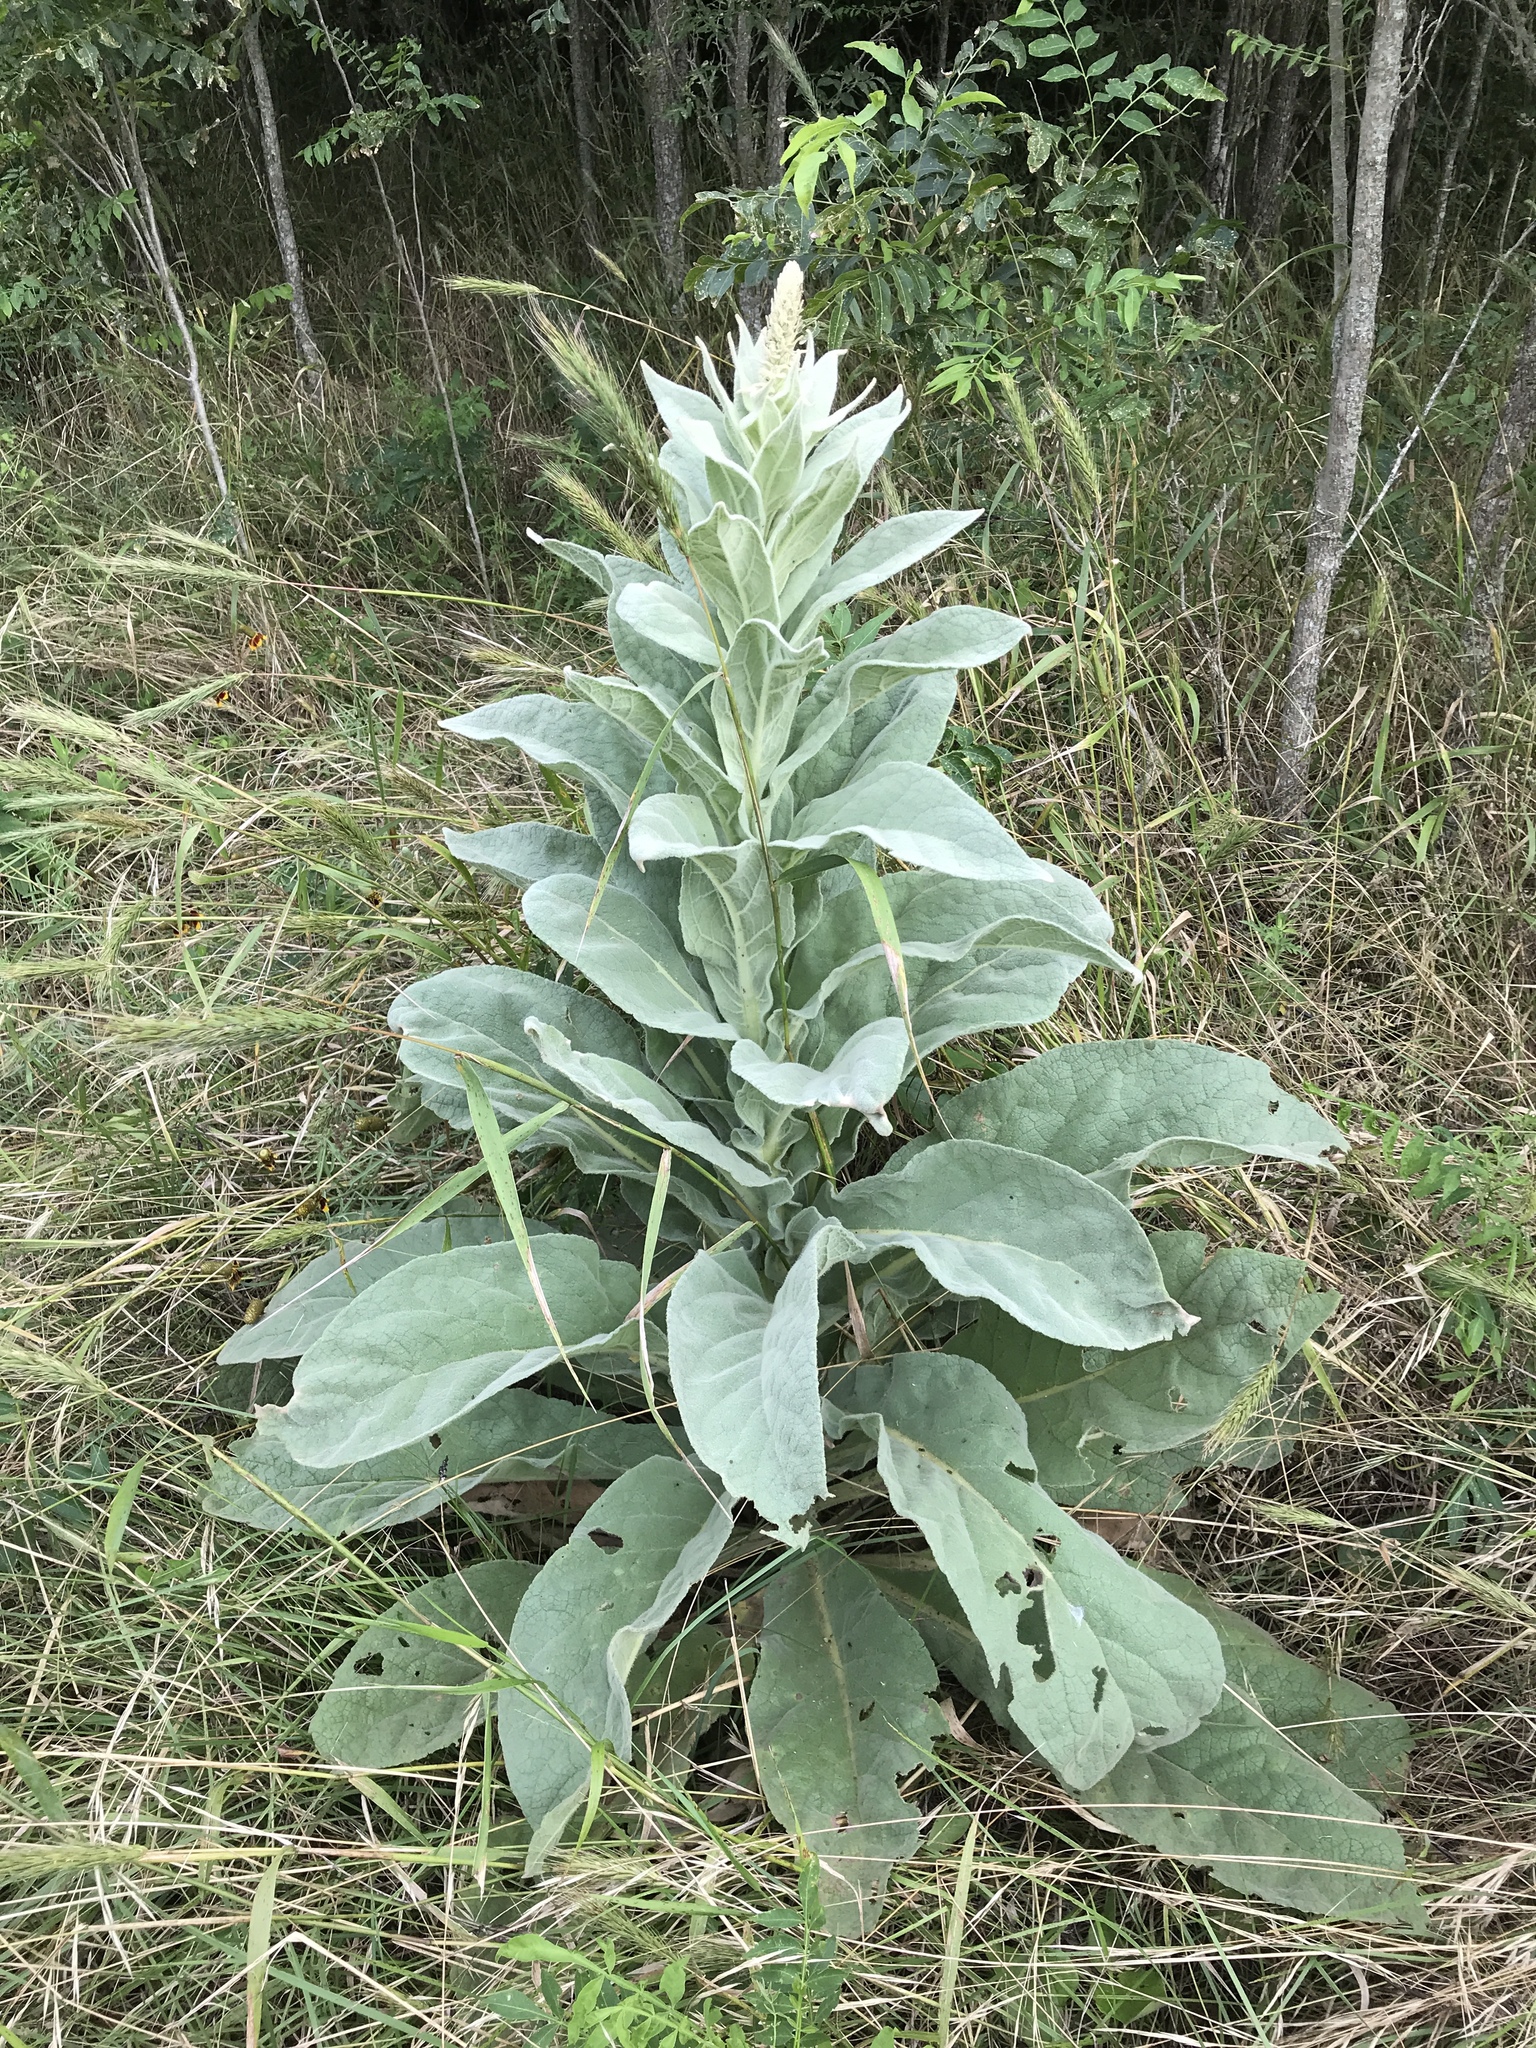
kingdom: Plantae
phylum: Tracheophyta
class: Magnoliopsida
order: Lamiales
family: Scrophulariaceae
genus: Verbascum
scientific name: Verbascum thapsus
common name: Common mullein
